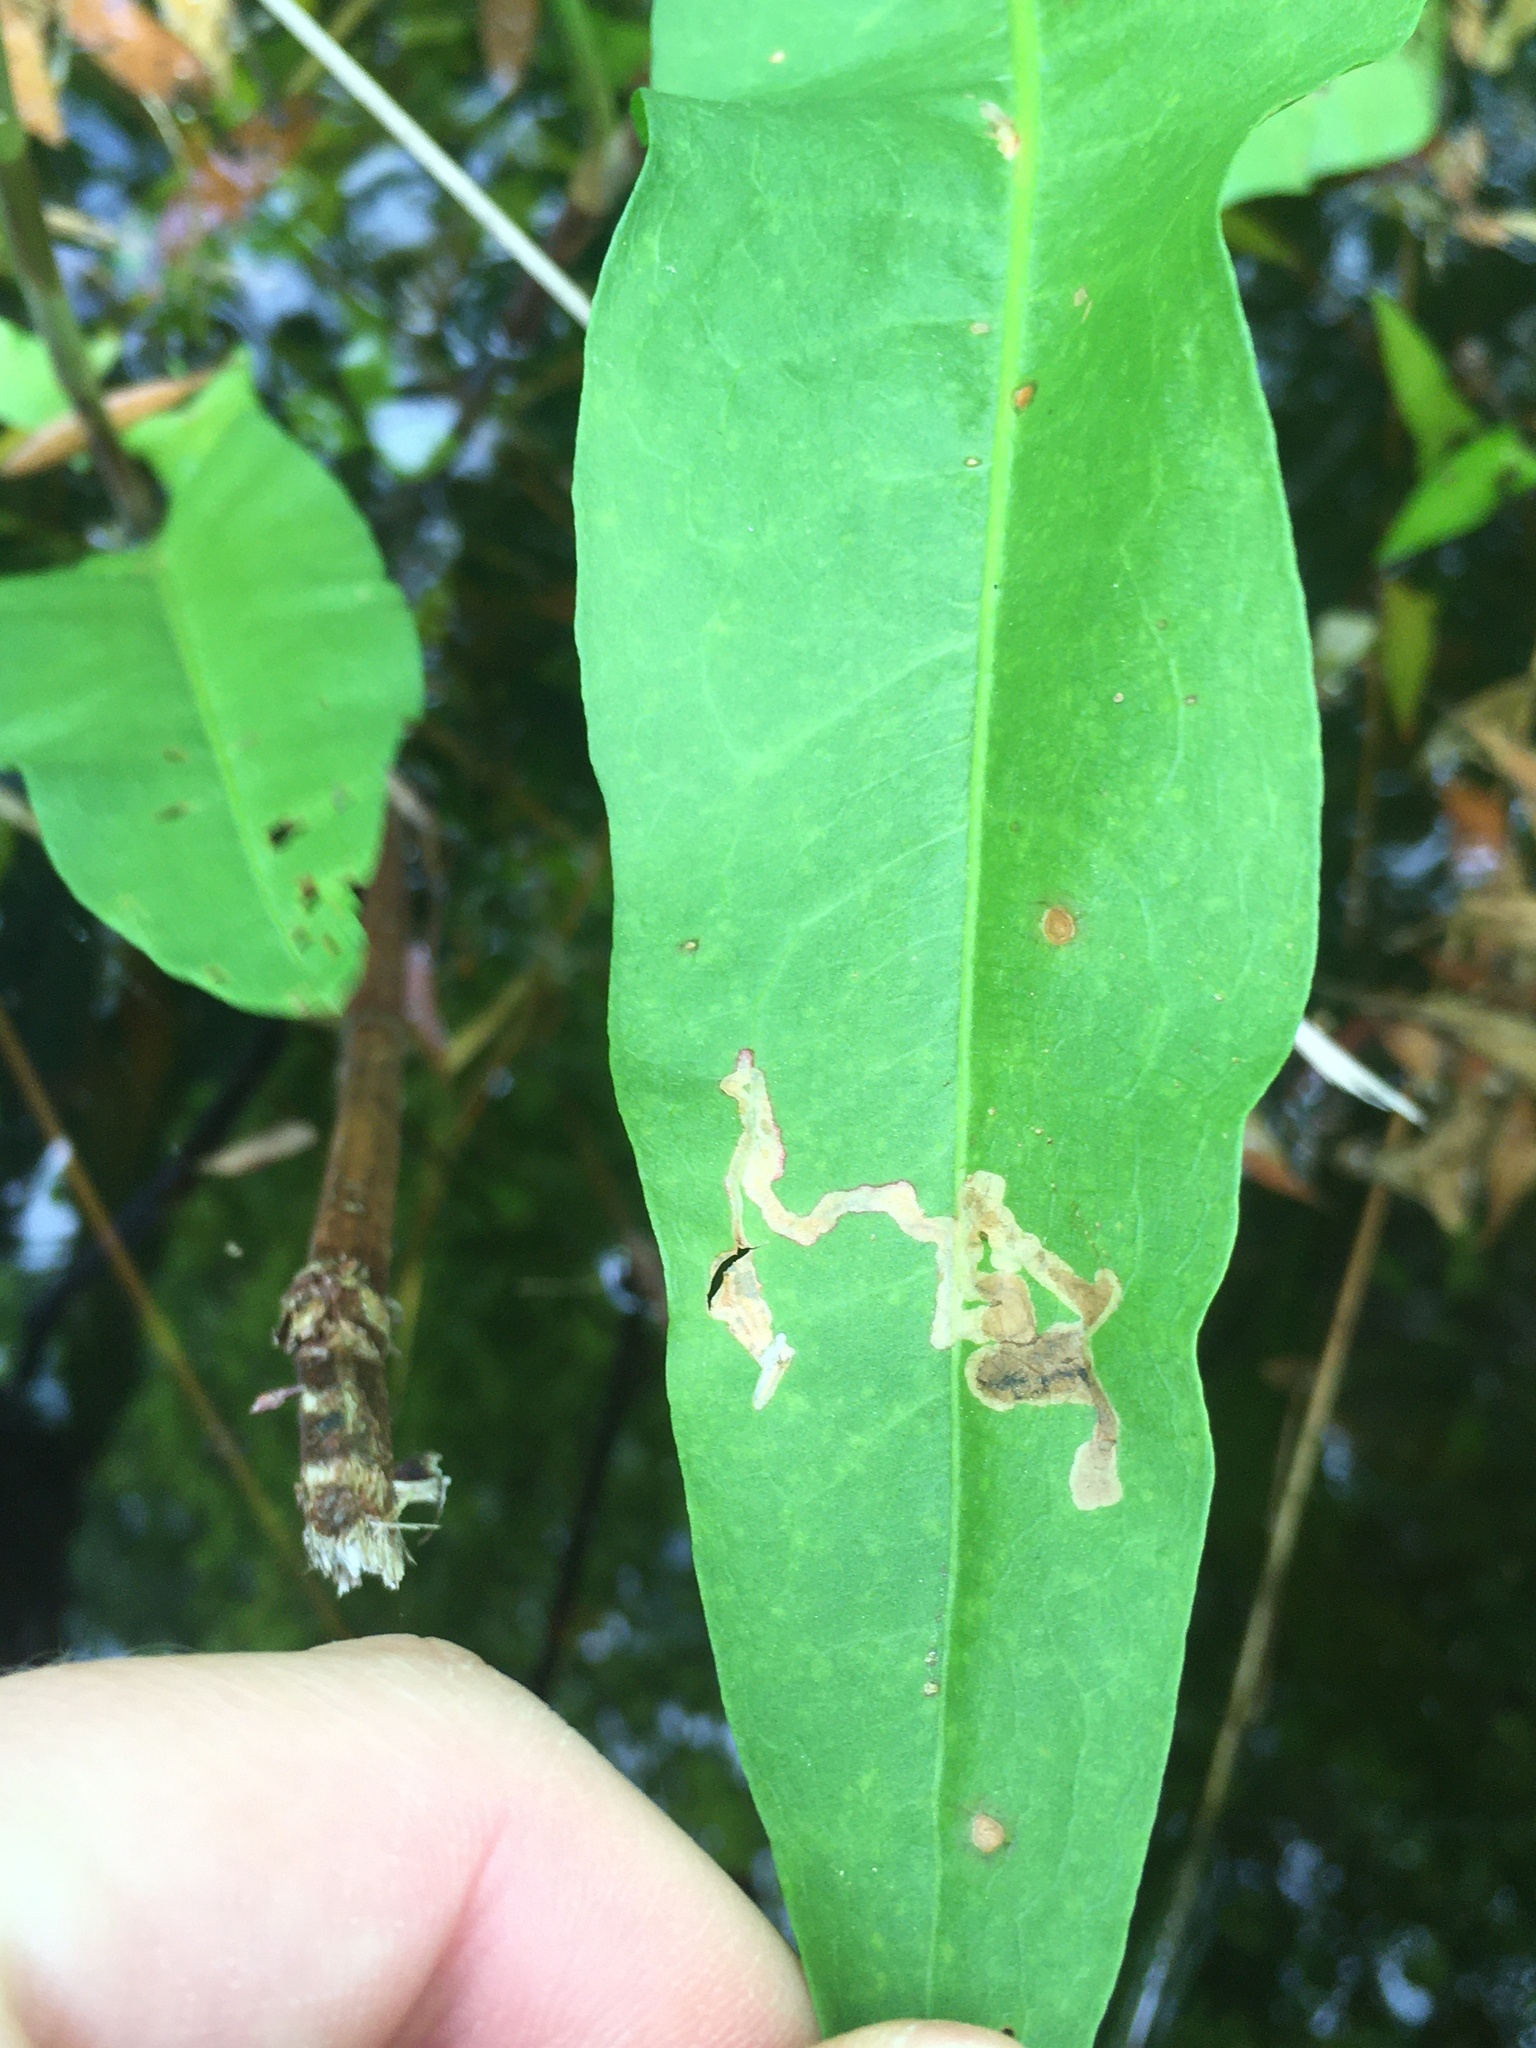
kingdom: Animalia
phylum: Arthropoda
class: Insecta
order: Coleoptera
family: Chrysomelidae
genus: Mantura
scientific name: Mantura floridana
